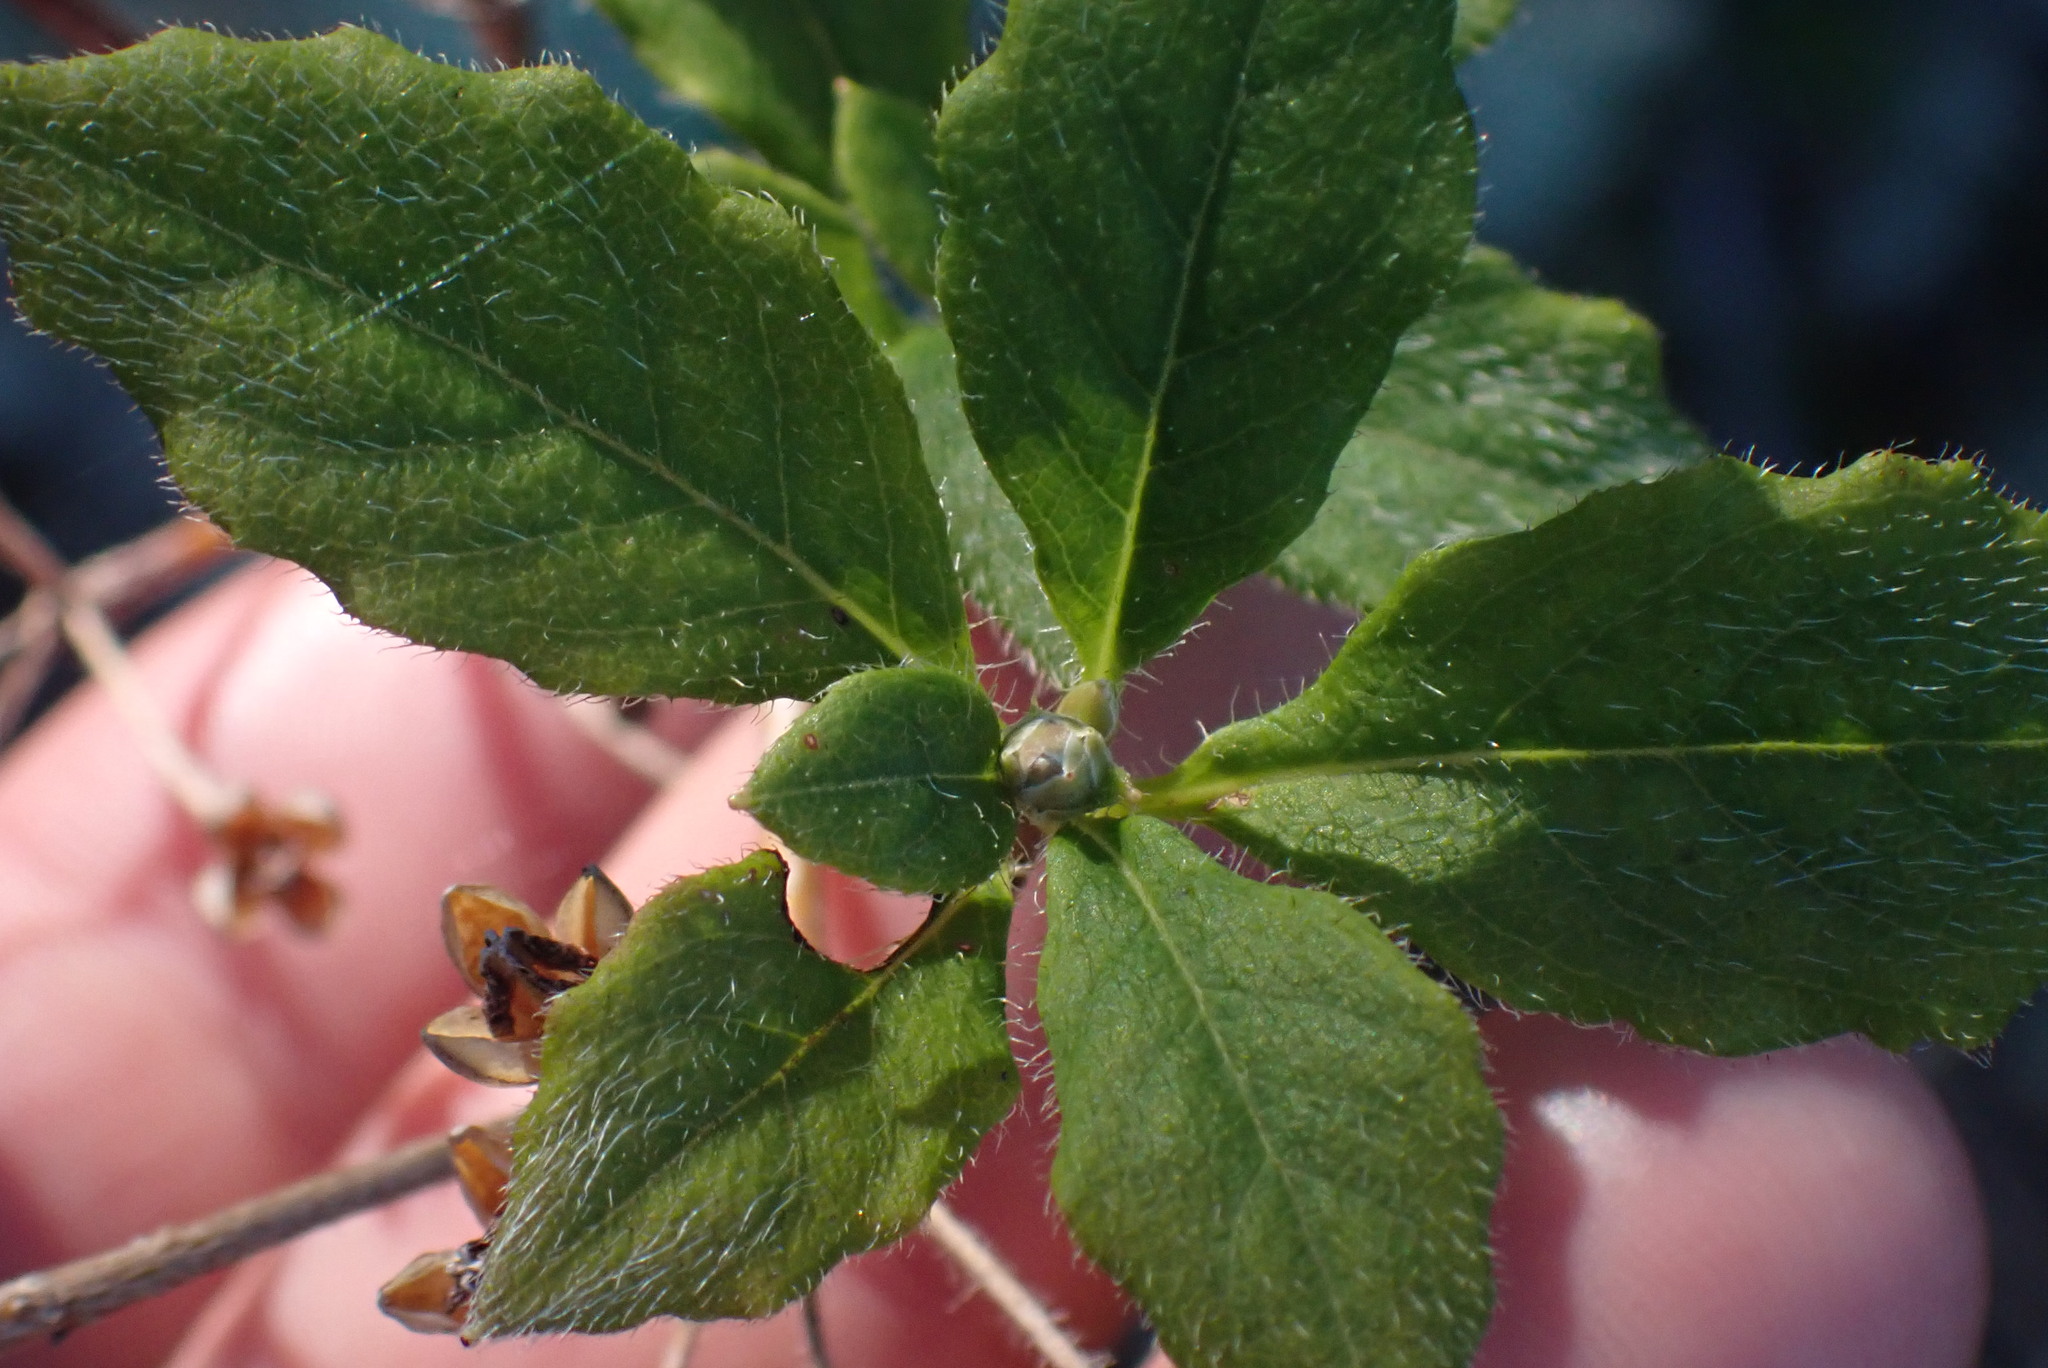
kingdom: Plantae
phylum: Tracheophyta
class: Magnoliopsida
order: Ericales
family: Ericaceae
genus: Rhododendron
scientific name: Rhododendron menziesii
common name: Pacific menziesia
